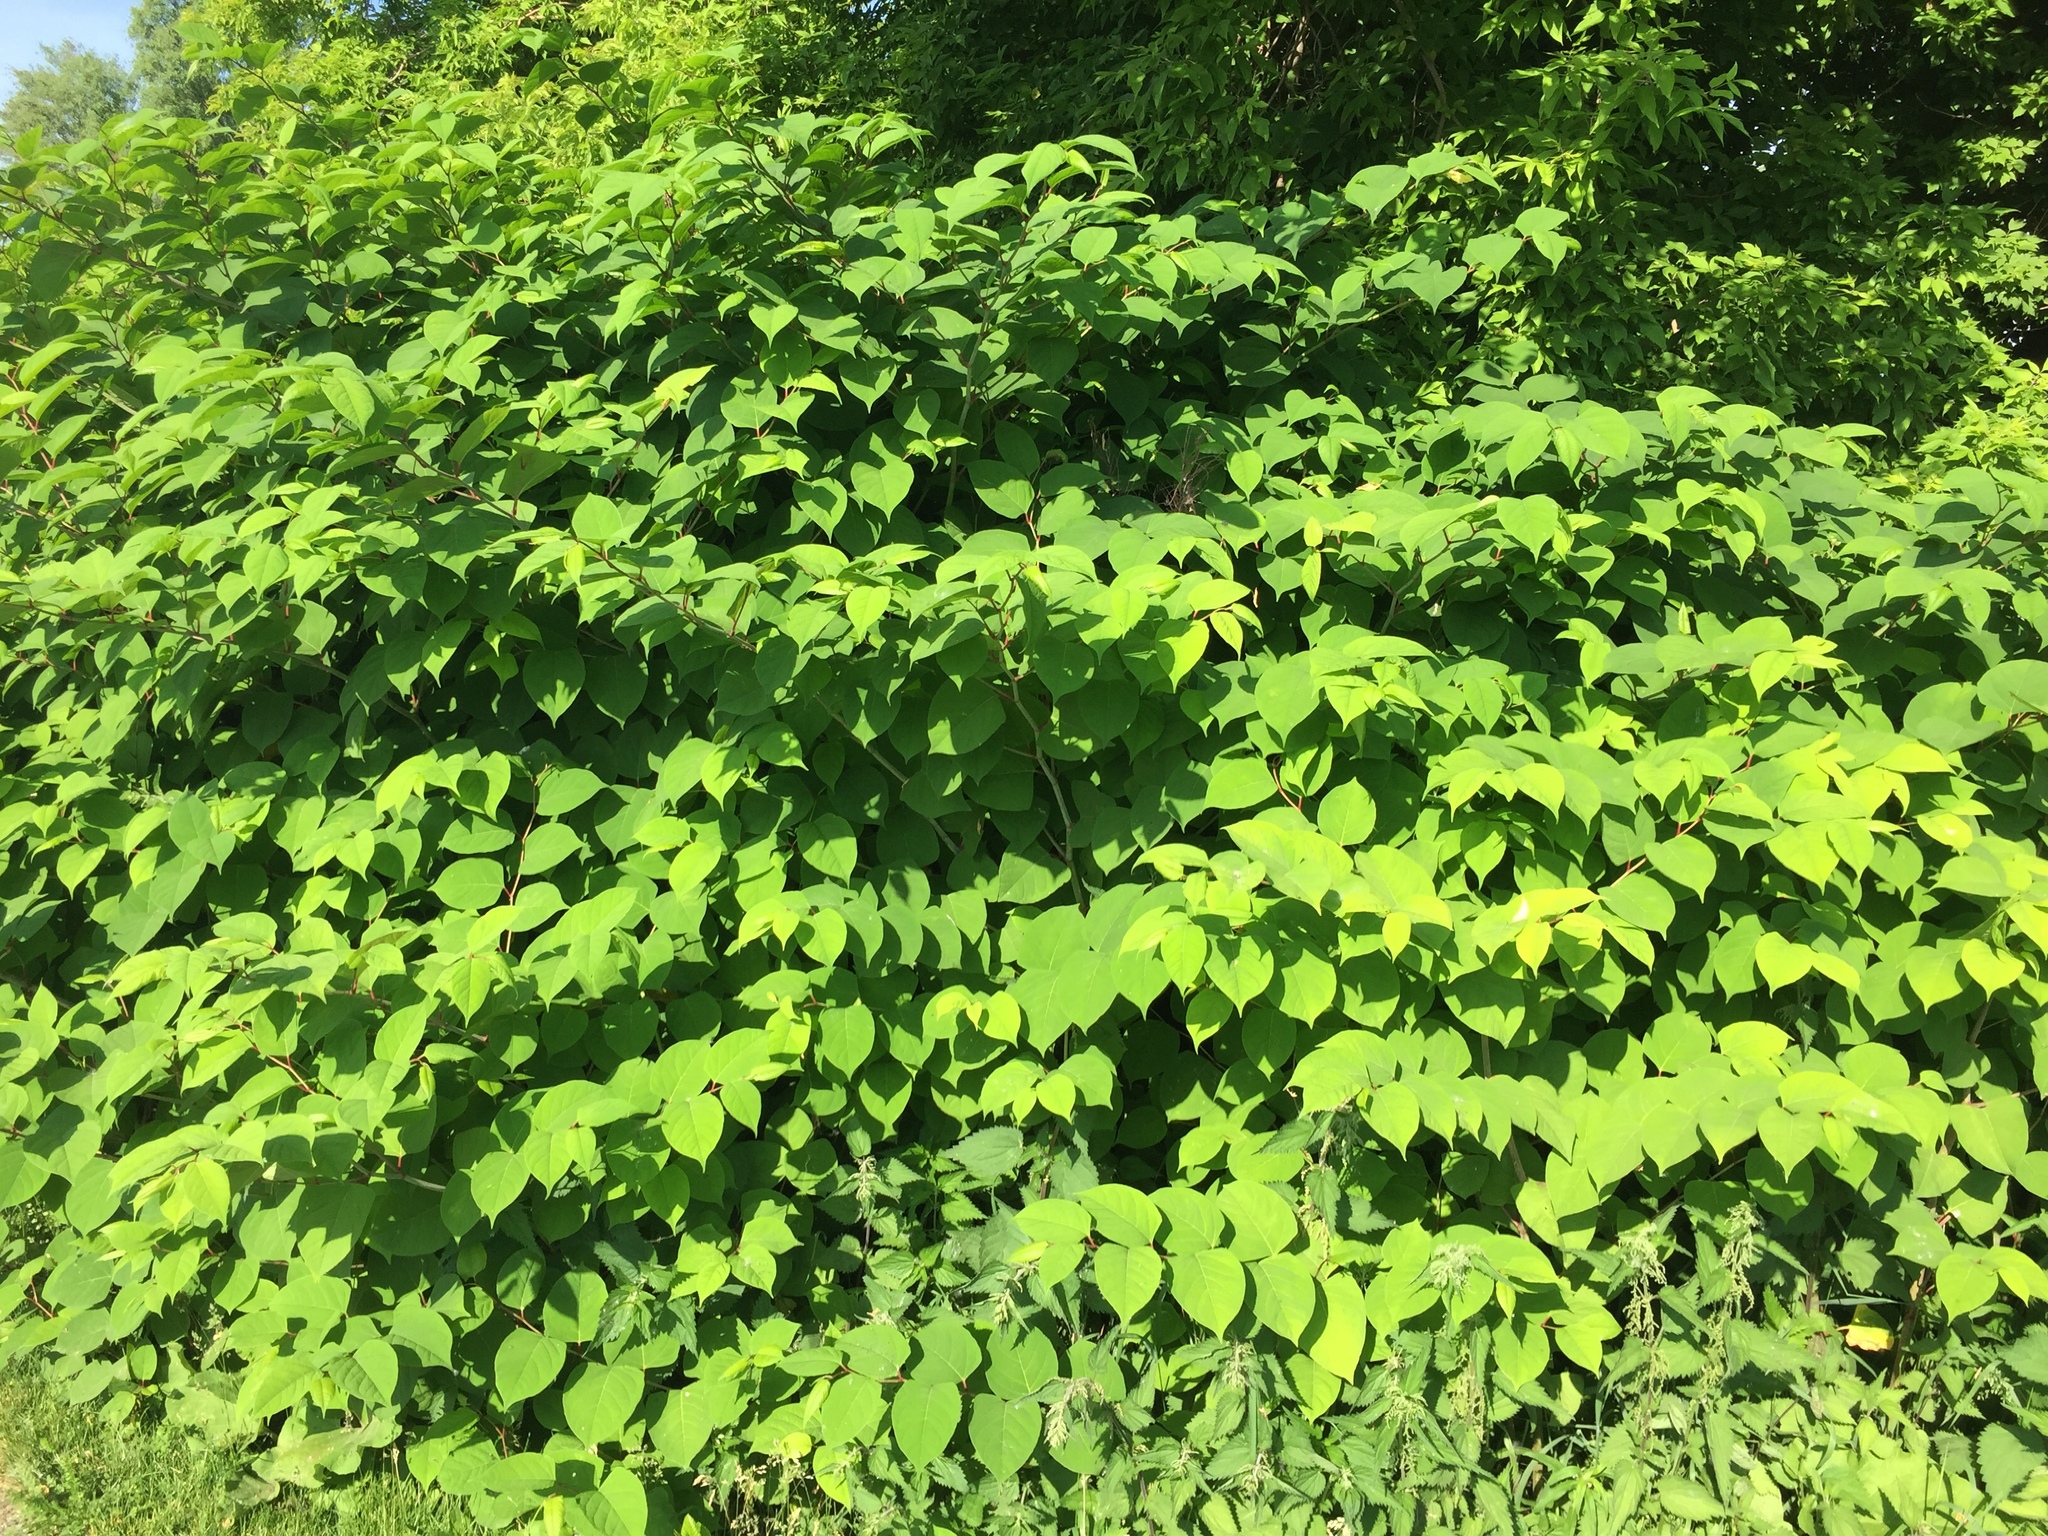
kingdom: Plantae
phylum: Tracheophyta
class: Magnoliopsida
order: Caryophyllales
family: Polygonaceae
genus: Reynoutria
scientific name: Reynoutria japonica
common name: Japanese knotweed
